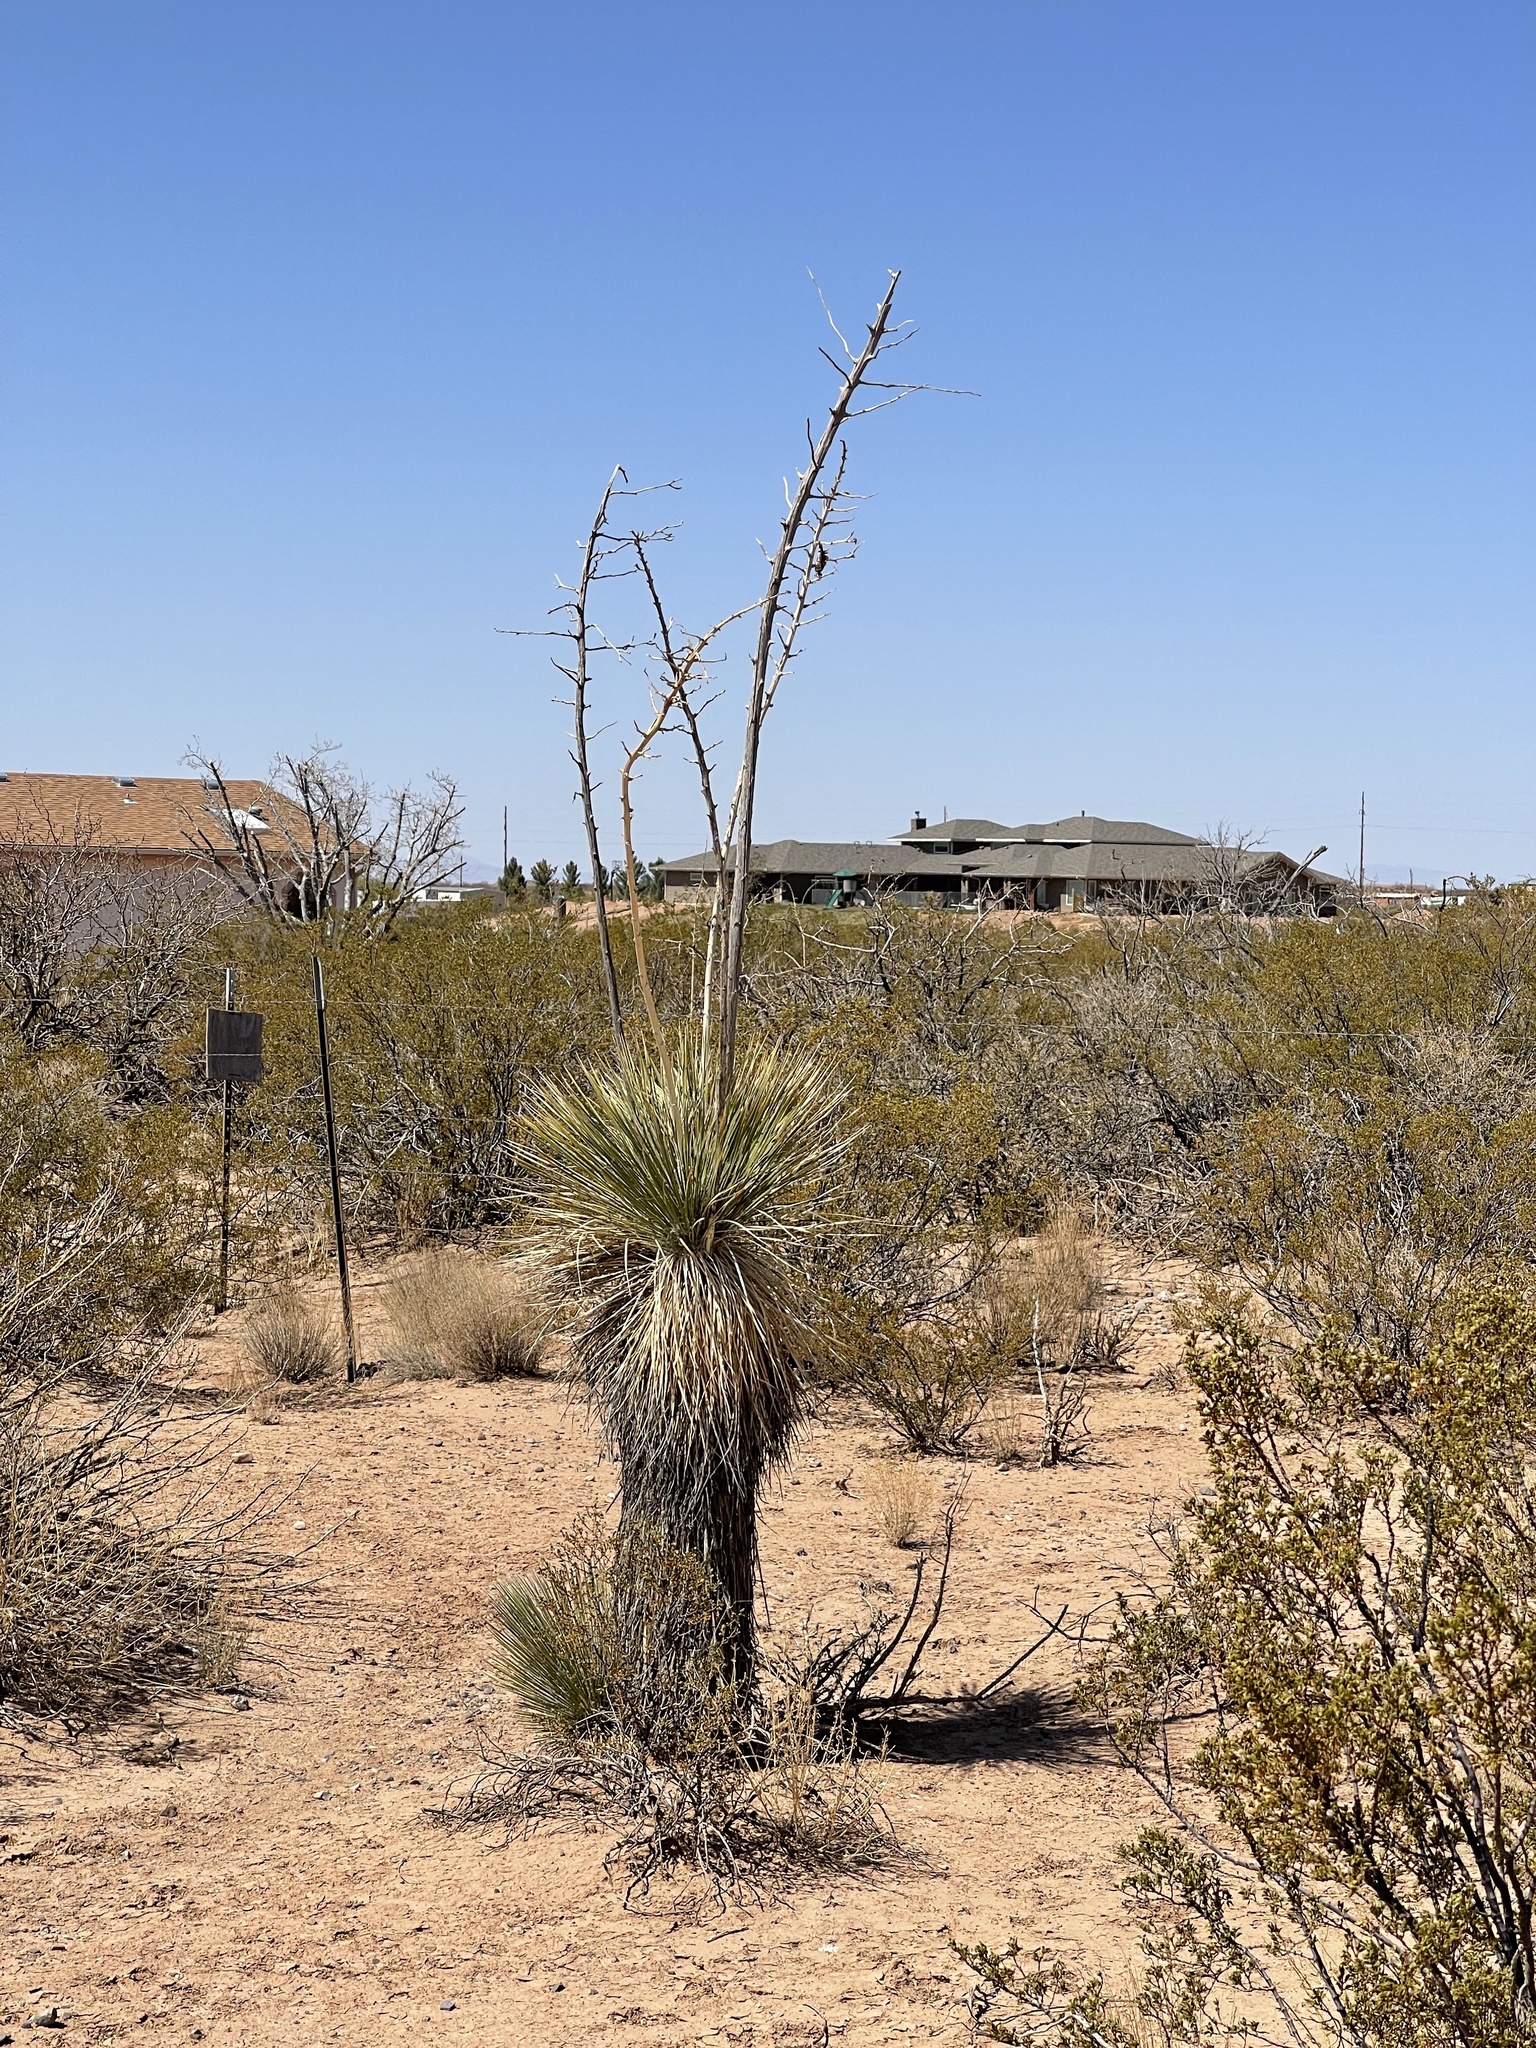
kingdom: Plantae
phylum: Tracheophyta
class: Liliopsida
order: Asparagales
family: Asparagaceae
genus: Yucca
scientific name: Yucca elata
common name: Palmella
